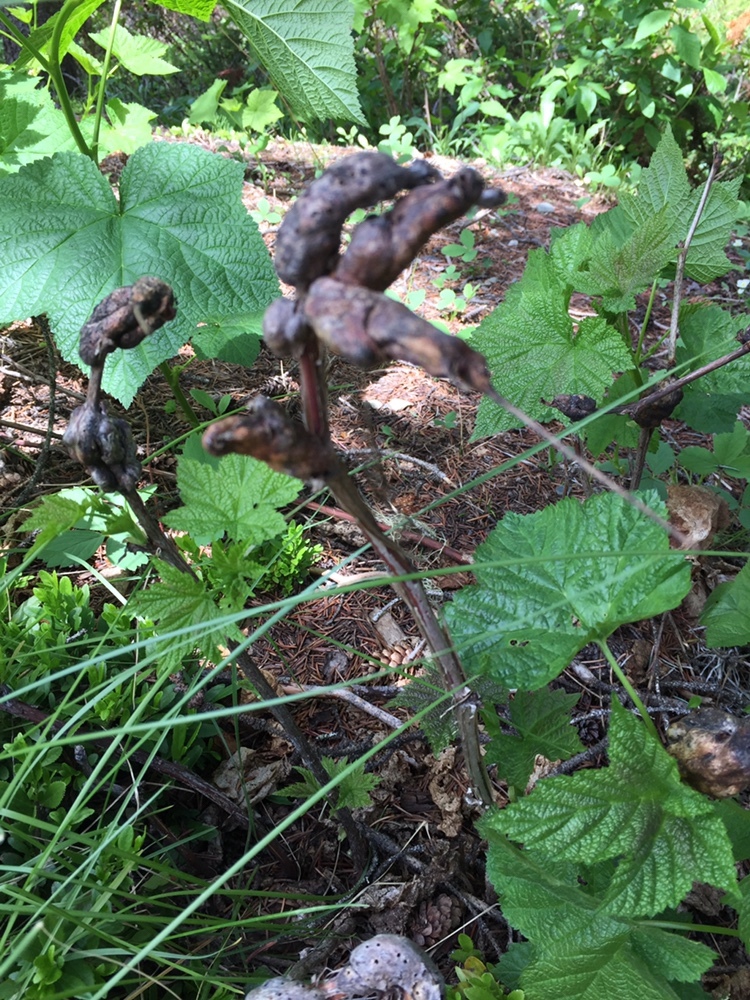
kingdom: Animalia
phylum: Arthropoda
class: Insecta
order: Hymenoptera
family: Cynipidae
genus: Diastrophus
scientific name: Diastrophus
